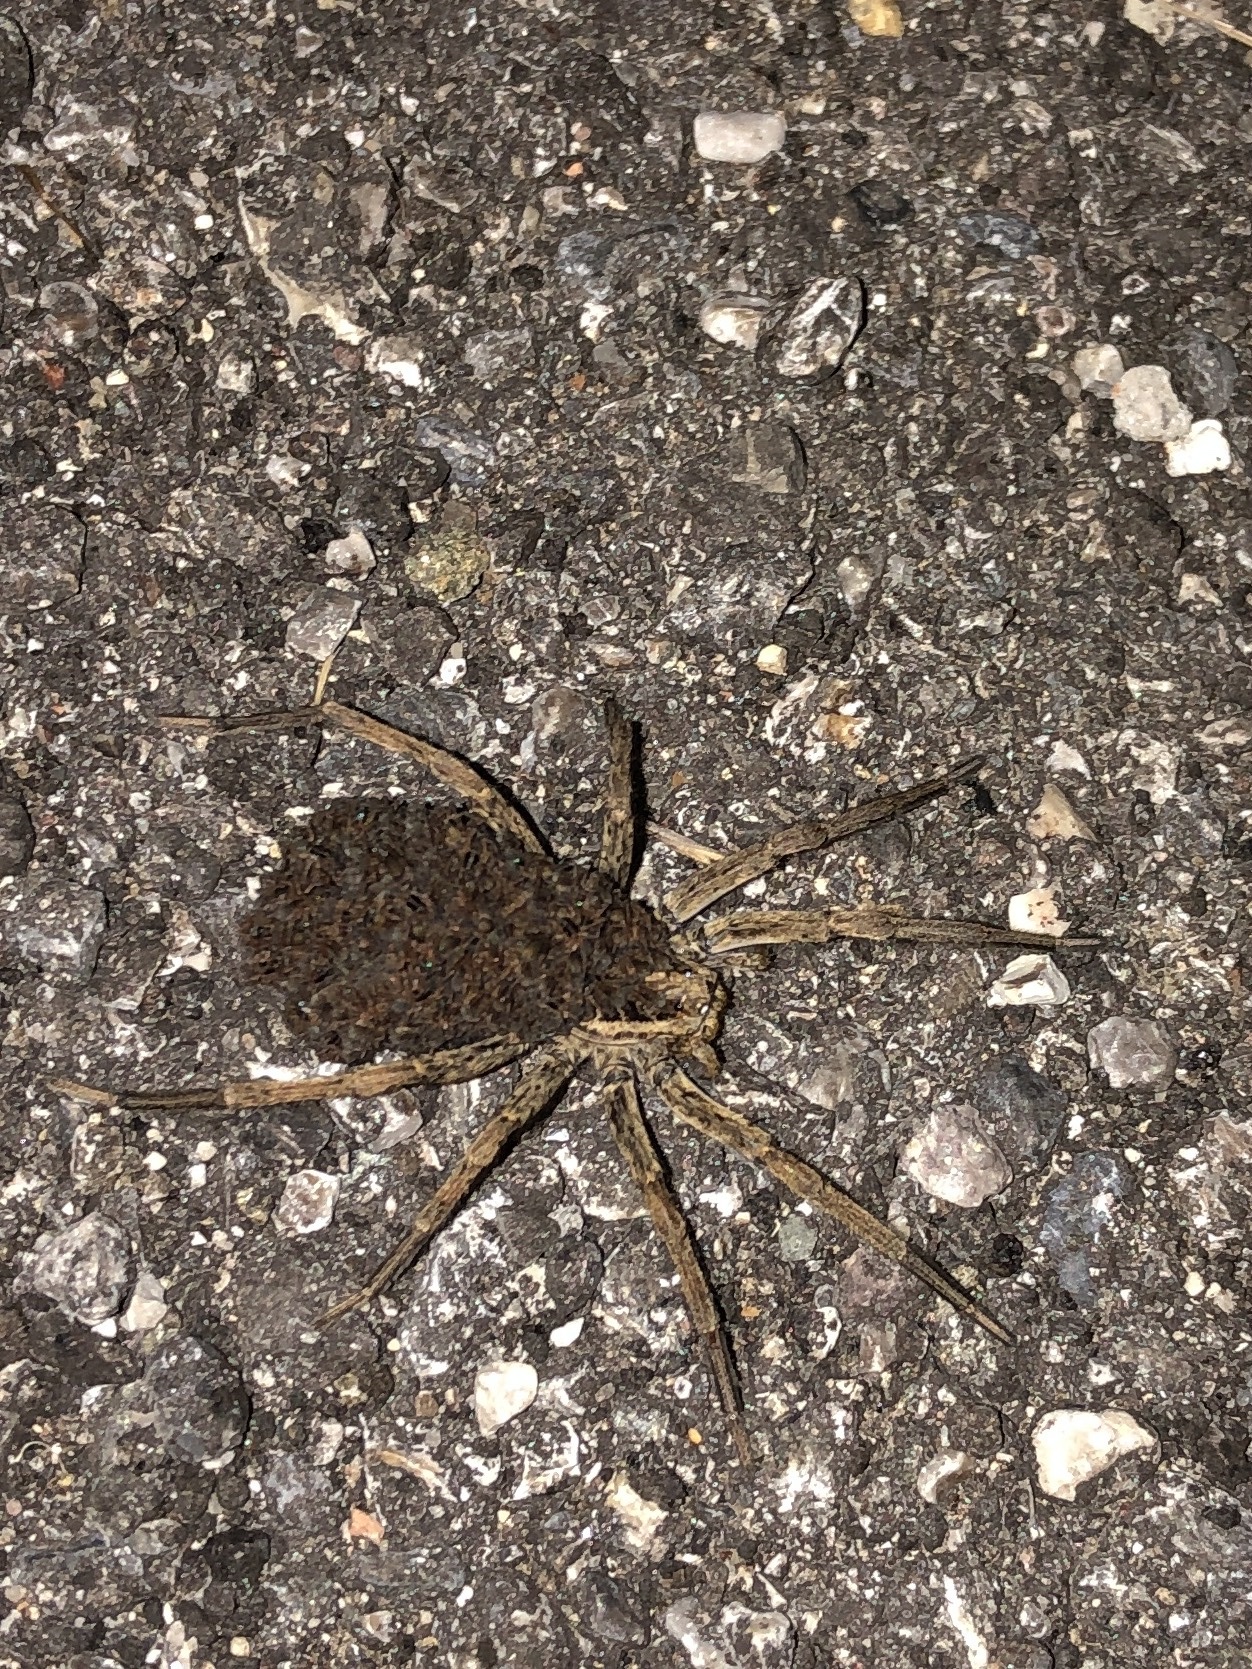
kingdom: Animalia
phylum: Arthropoda
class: Arachnida
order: Araneae
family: Lycosidae
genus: Hogna
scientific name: Hogna radiata
